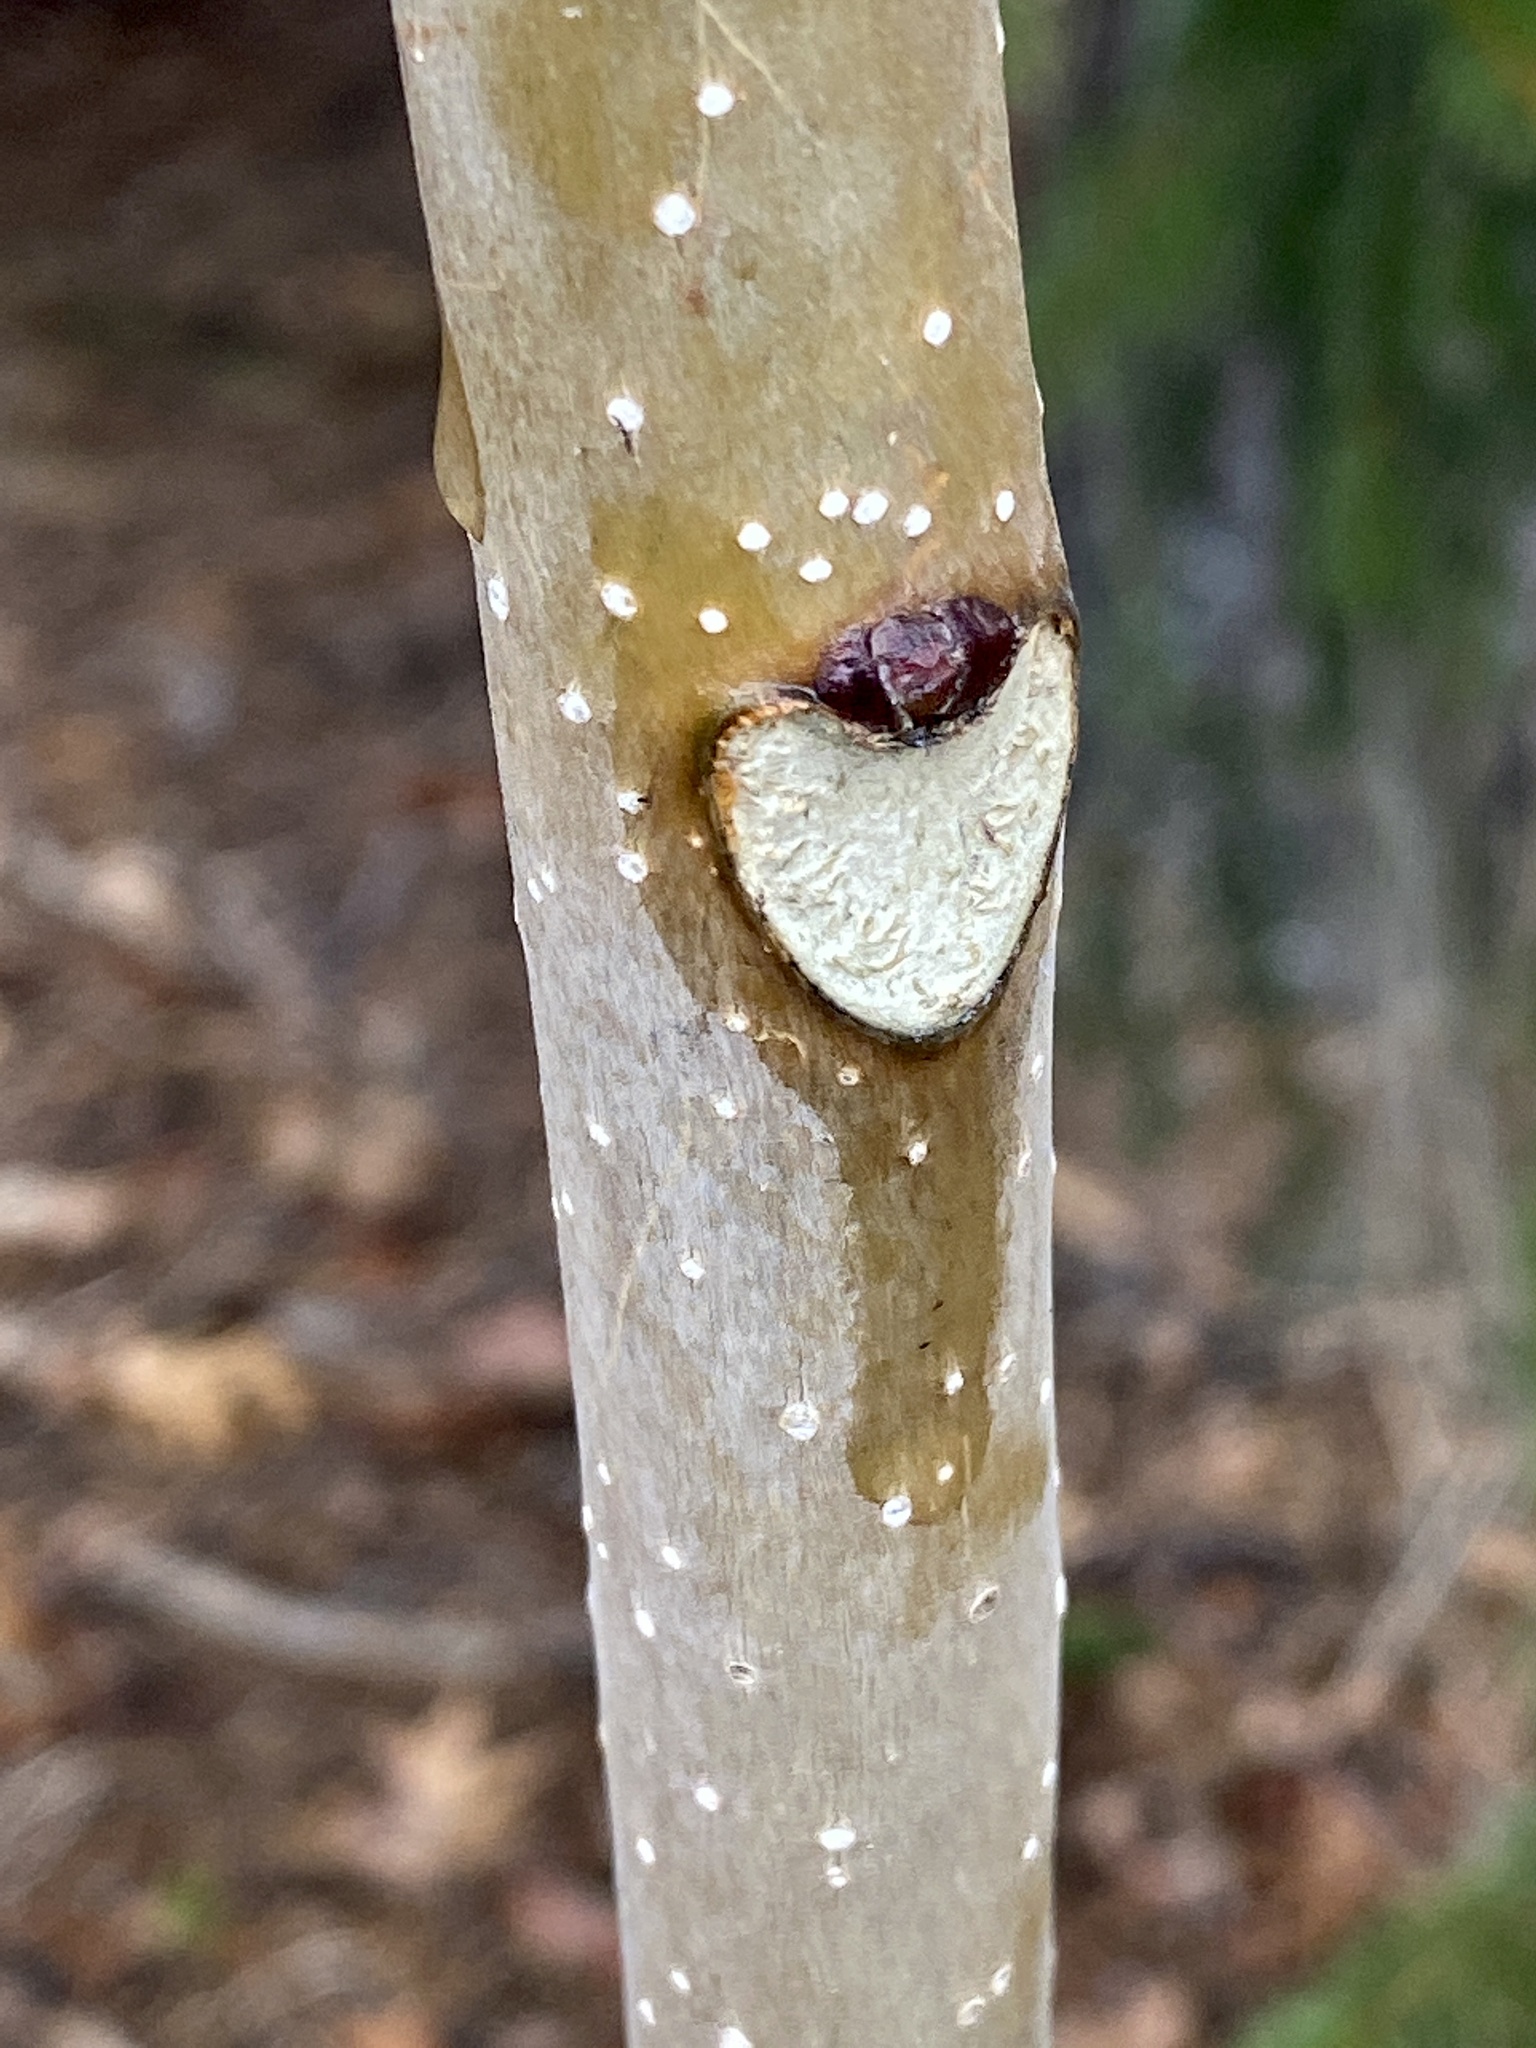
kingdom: Plantae
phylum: Tracheophyta
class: Magnoliopsida
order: Sapindales
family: Simaroubaceae
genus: Ailanthus
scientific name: Ailanthus altissima
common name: Tree-of-heaven
